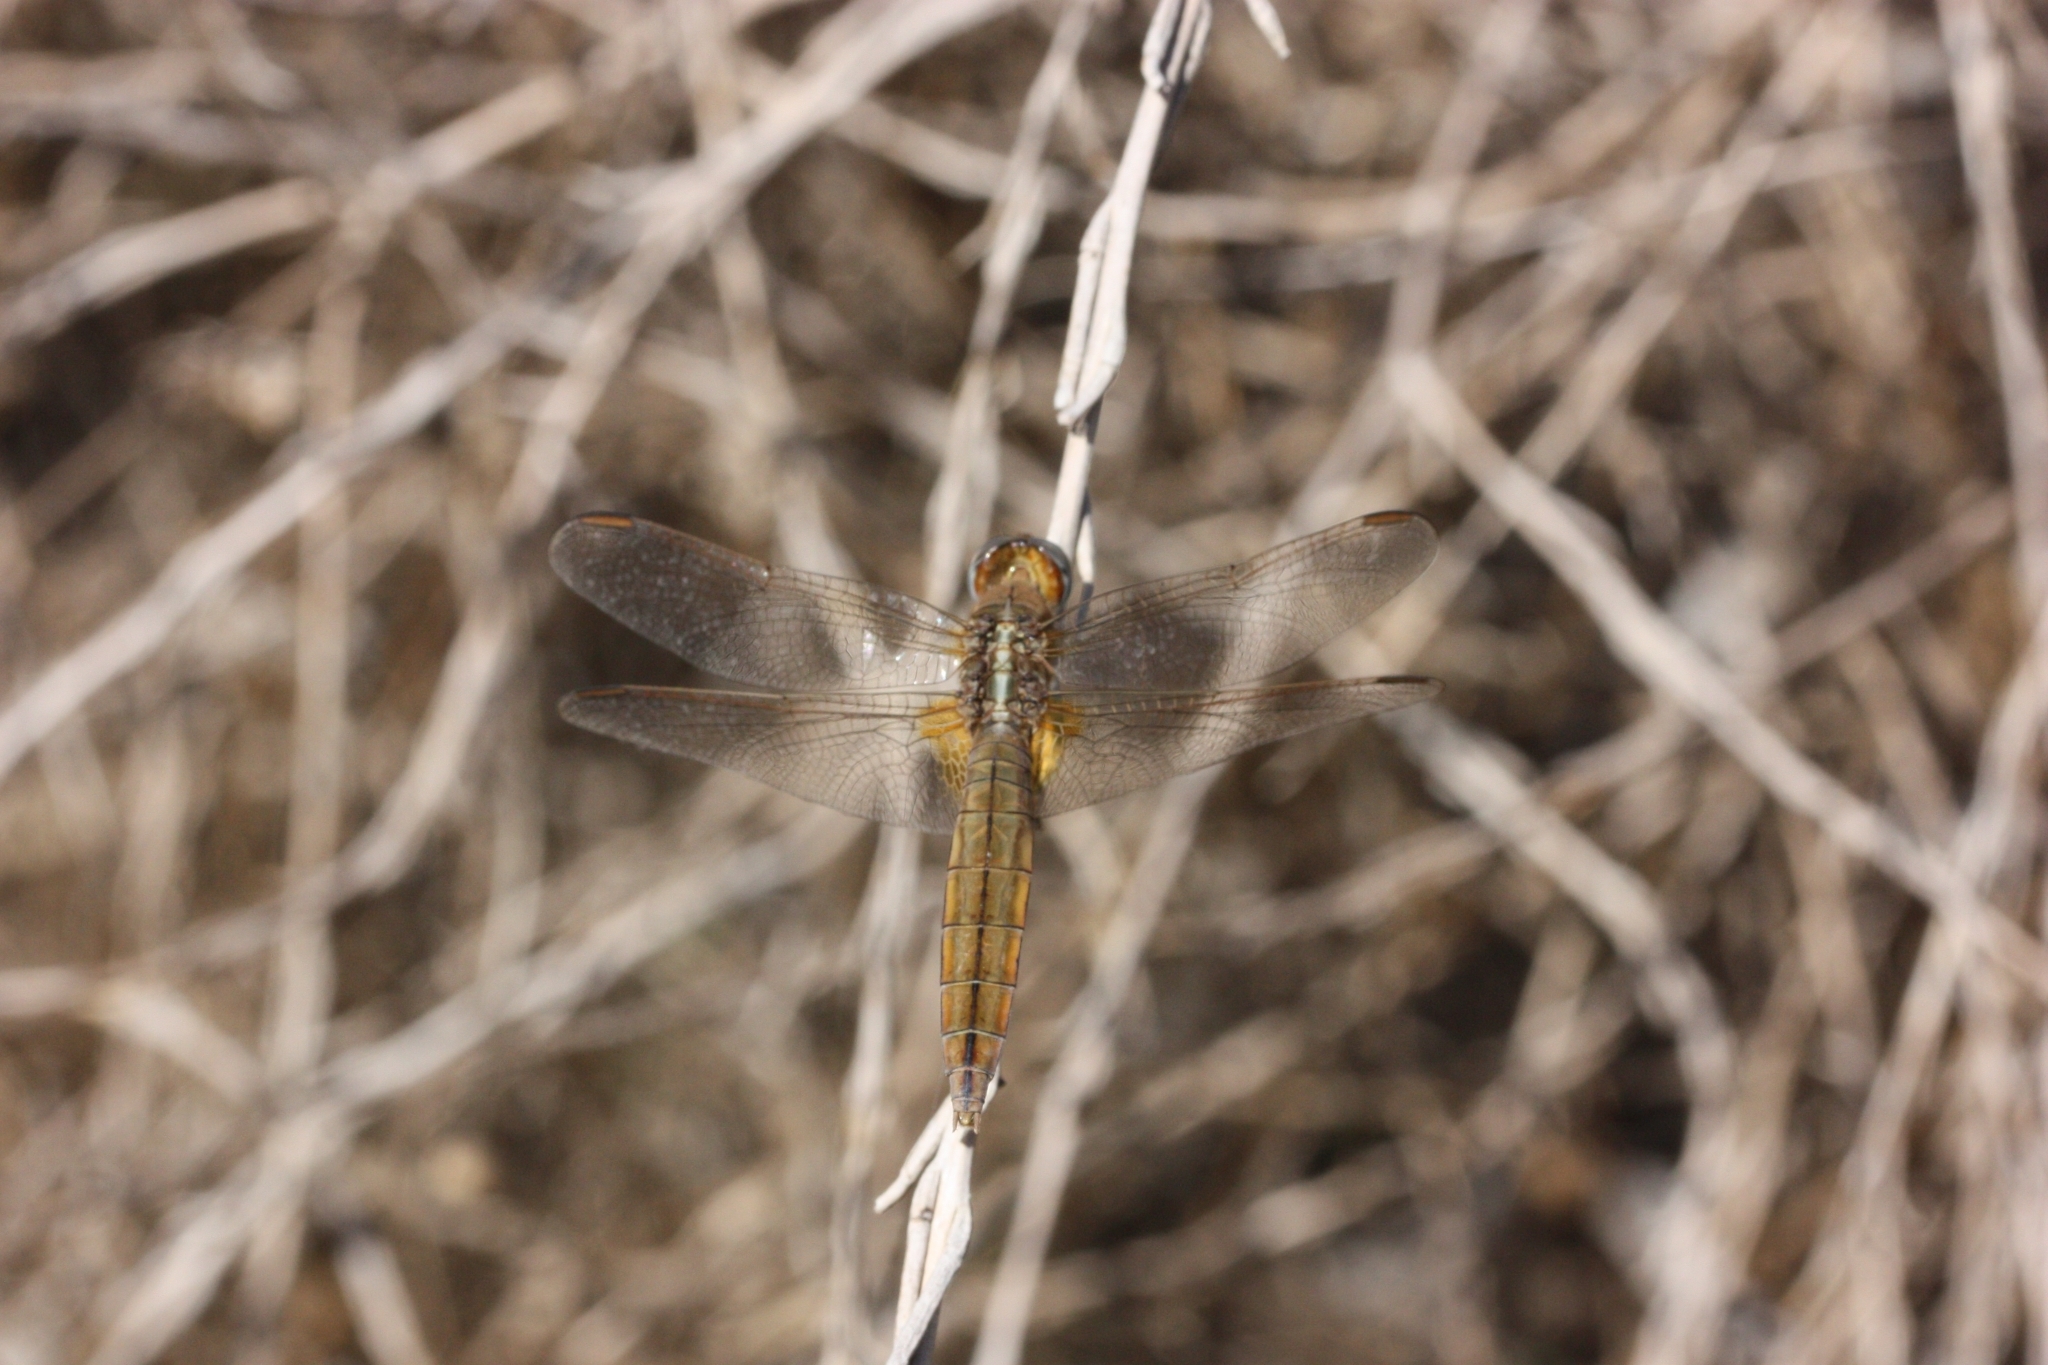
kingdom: Animalia
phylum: Arthropoda
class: Insecta
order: Odonata
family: Libellulidae
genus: Crocothemis
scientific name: Crocothemis erythraea
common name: Scarlet dragonfly
